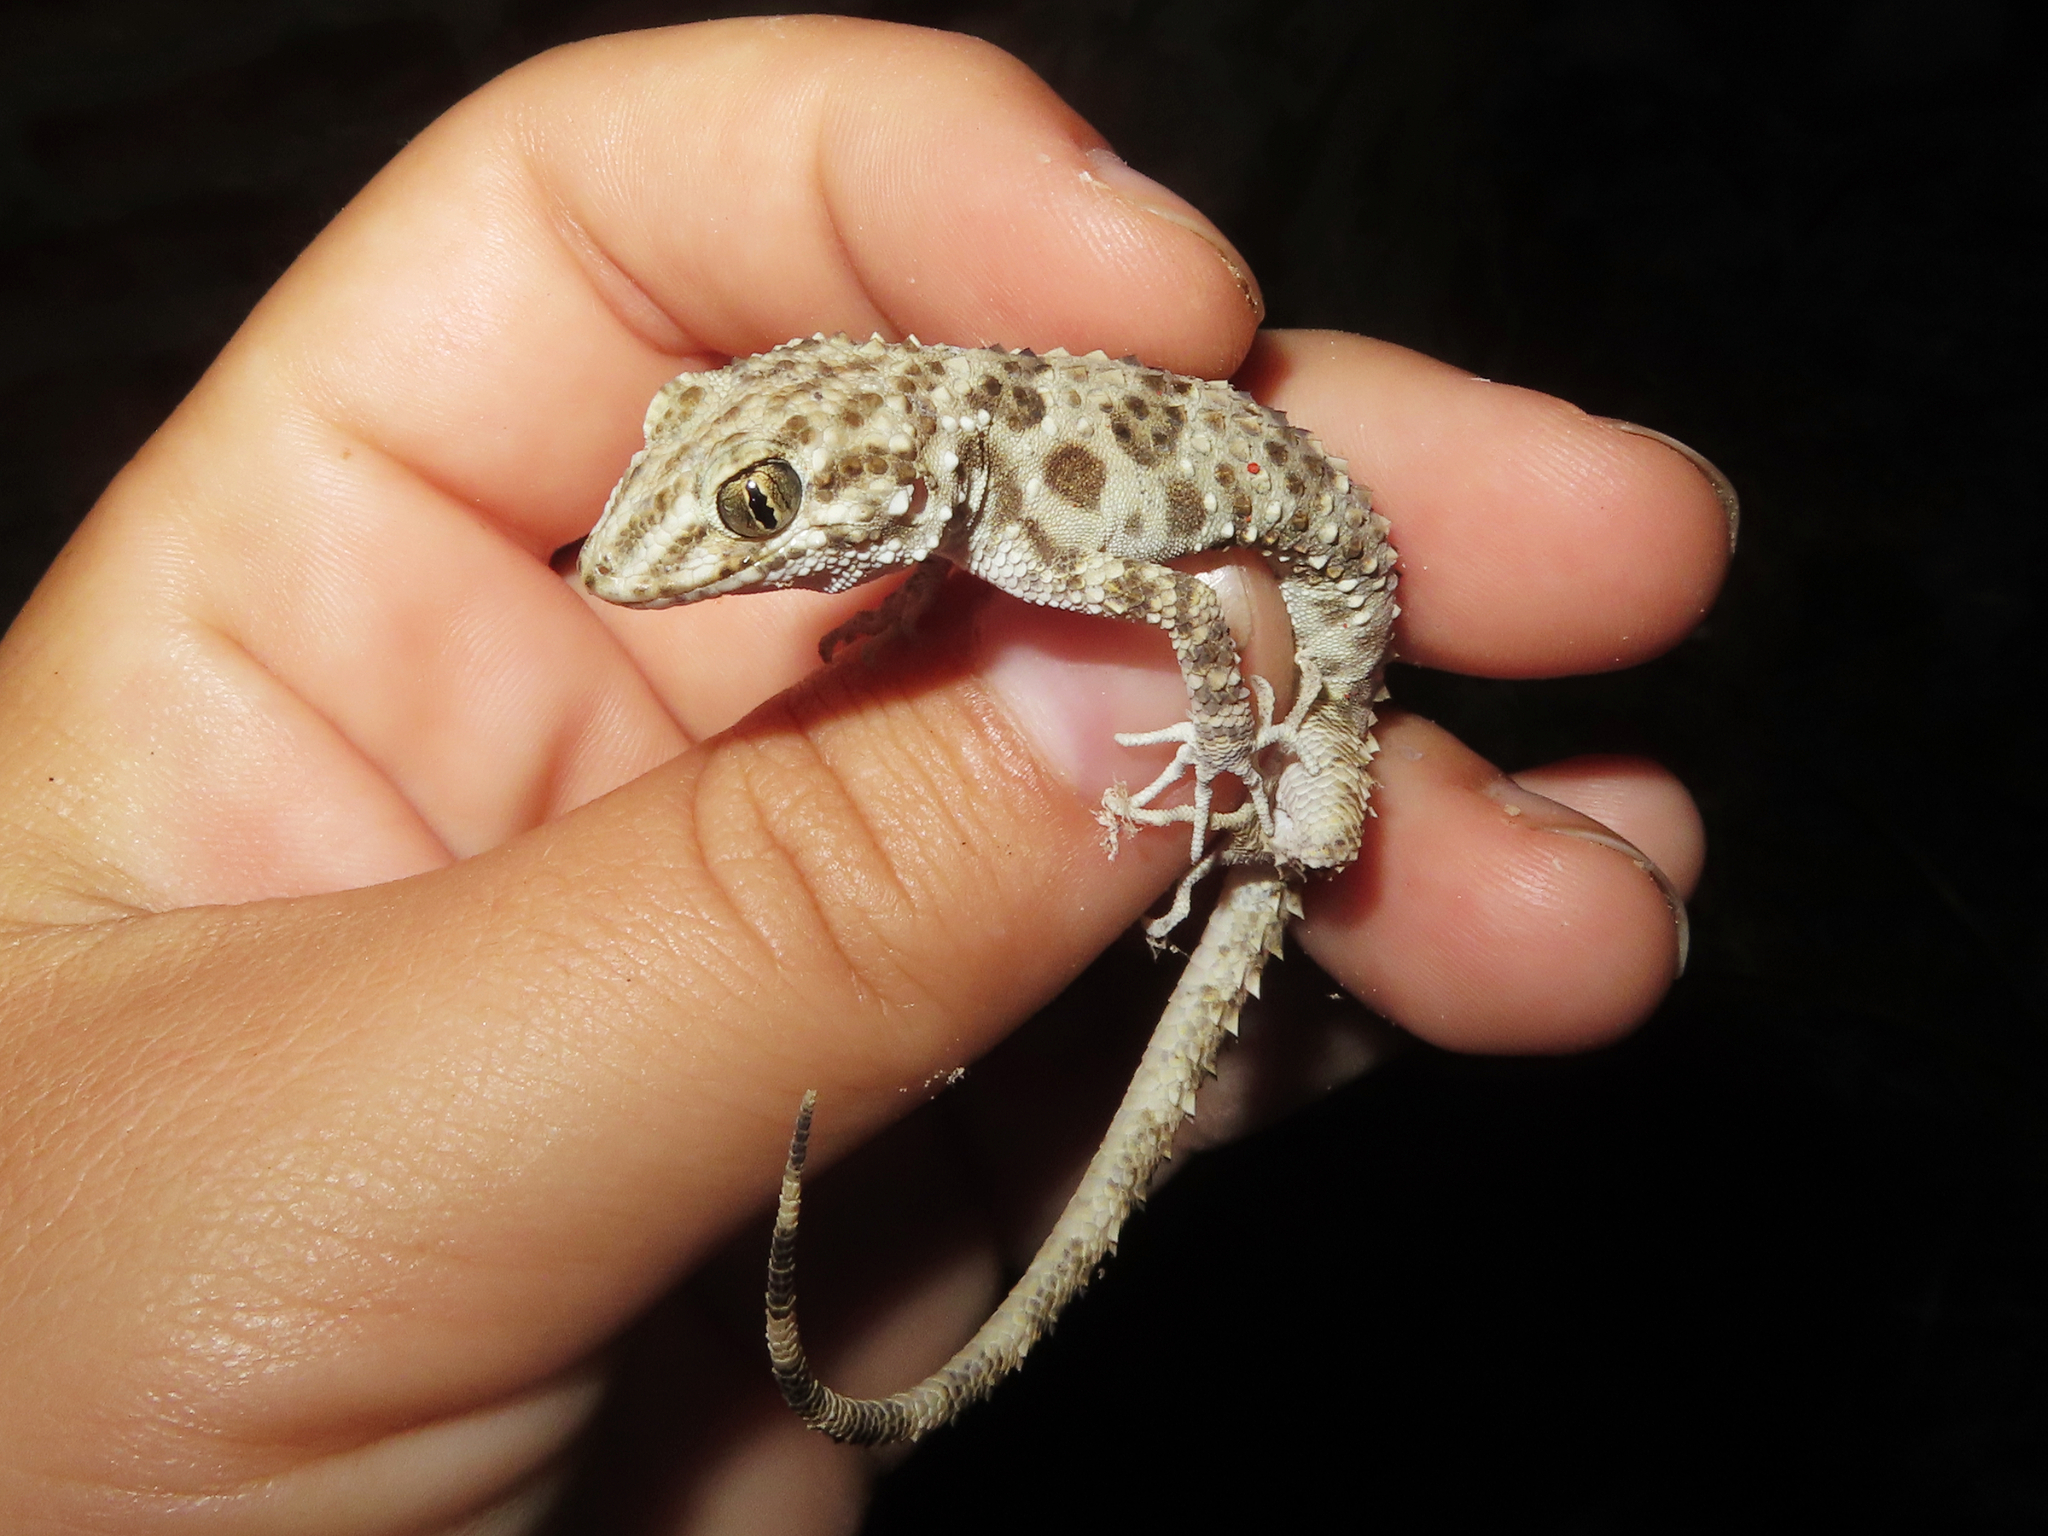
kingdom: Animalia
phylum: Chordata
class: Squamata
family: Gekkonidae
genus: Tenuidactylus
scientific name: Tenuidactylus caspius
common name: Caspian bent-toed gecko
